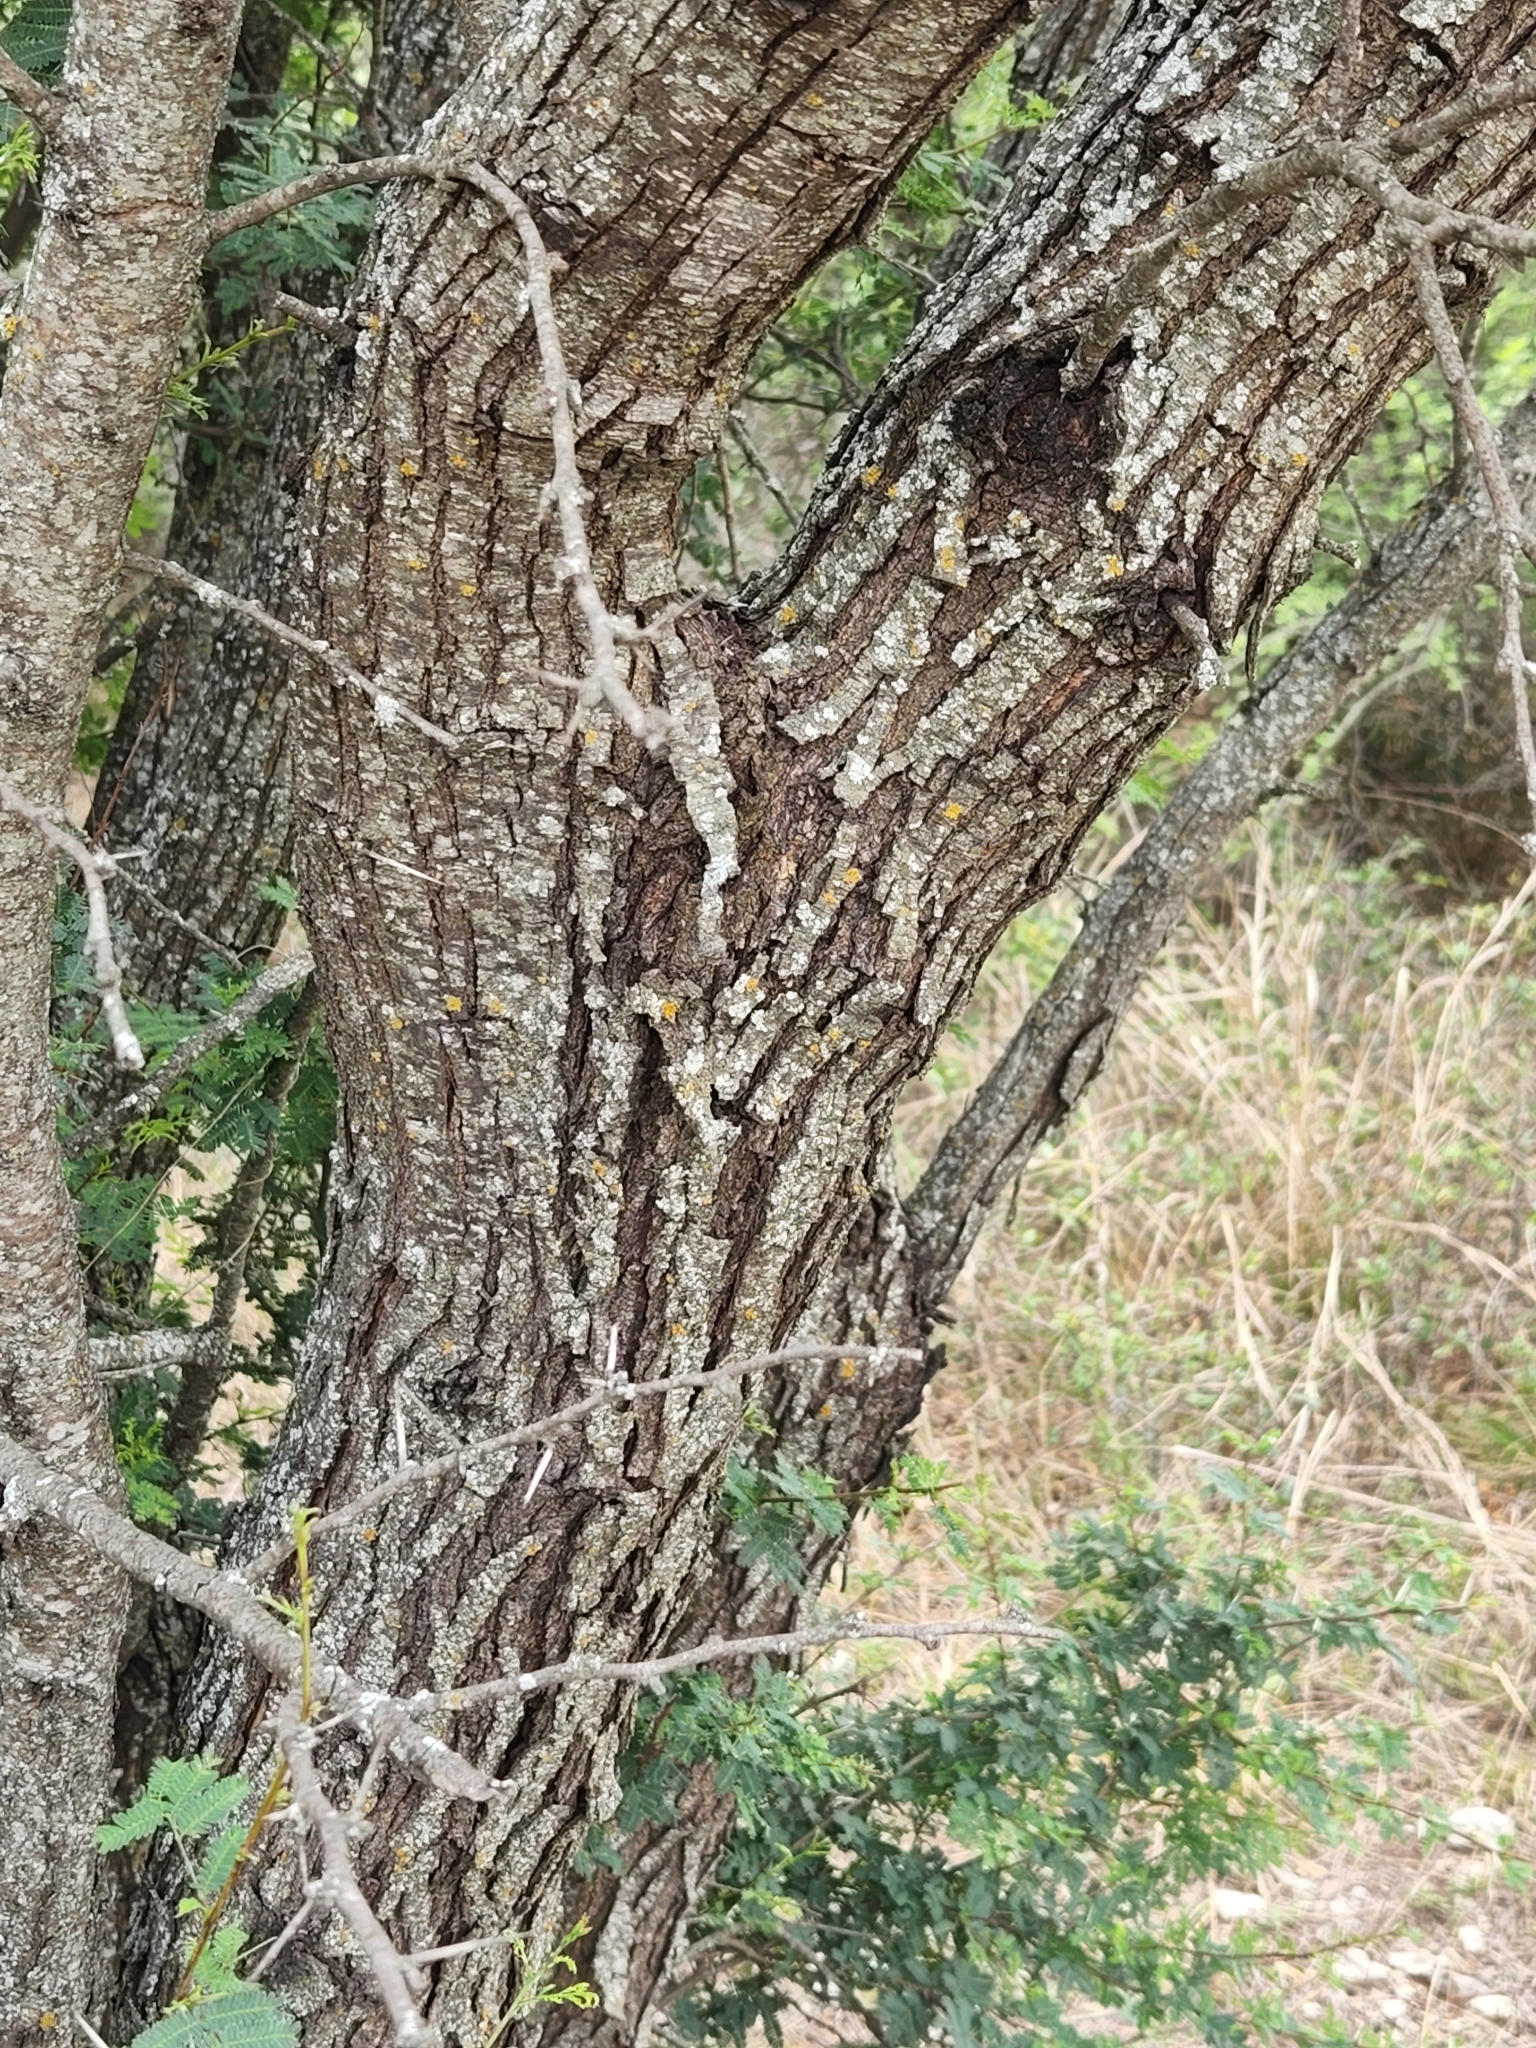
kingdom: Plantae
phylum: Tracheophyta
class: Magnoliopsida
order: Fabales
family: Fabaceae
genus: Vachellia
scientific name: Vachellia farnesiana
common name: Sweet acacia
